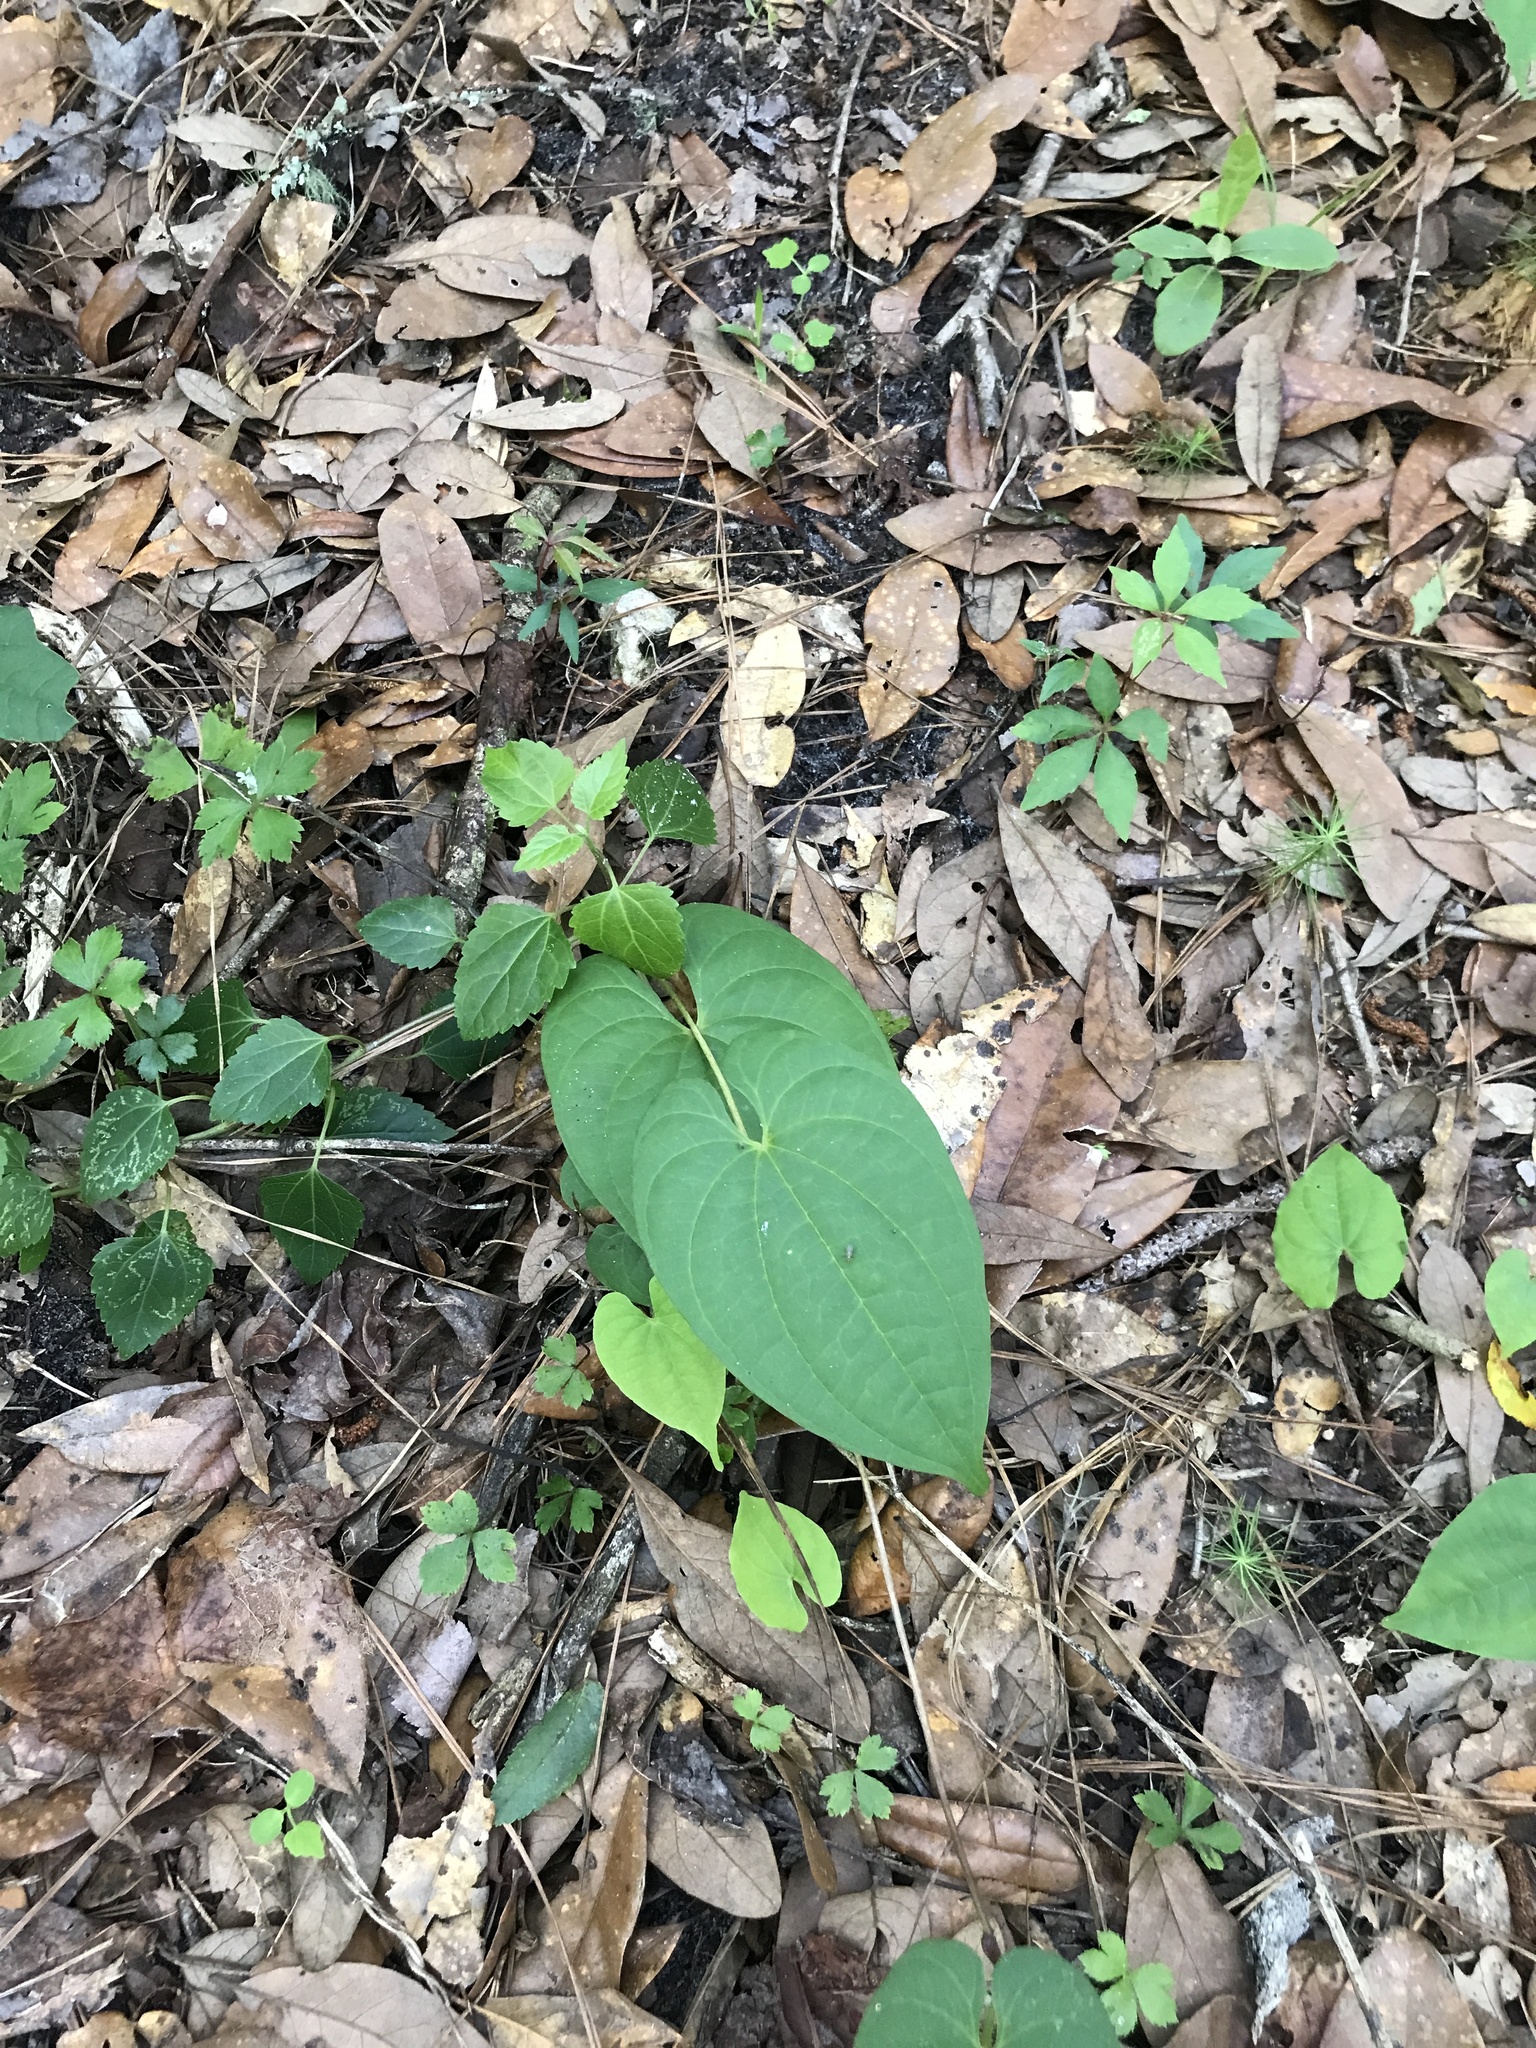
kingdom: Plantae
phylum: Tracheophyta
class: Liliopsida
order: Dioscoreales
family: Dioscoreaceae
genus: Dioscorea
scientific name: Dioscorea bulbifera
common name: Air yam
